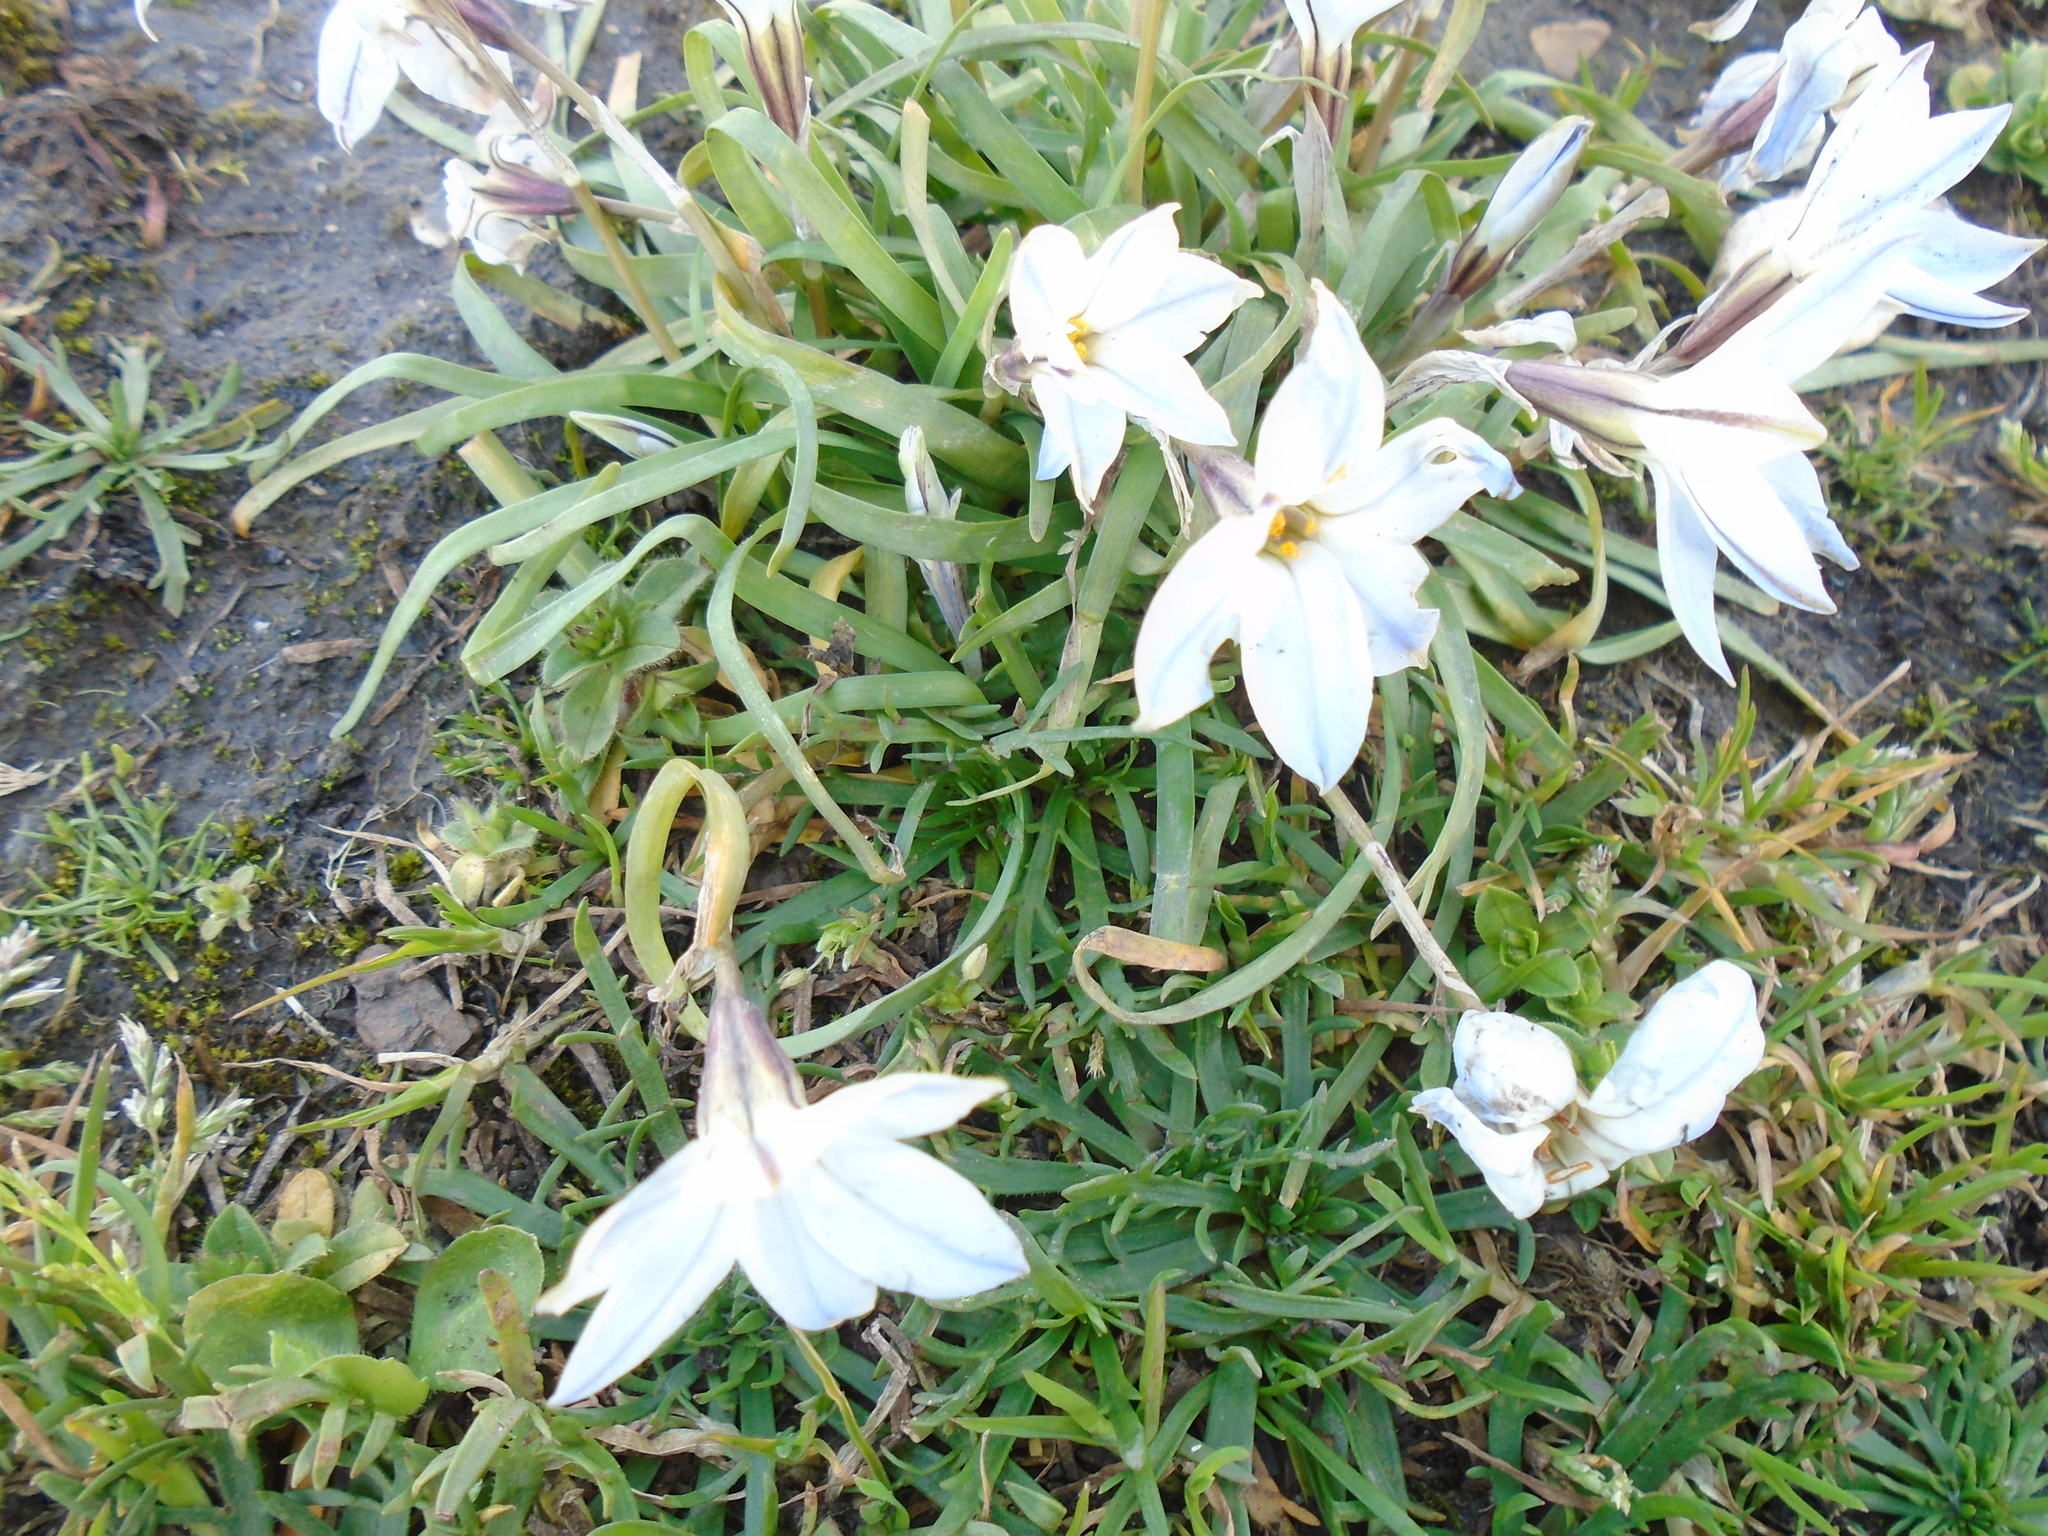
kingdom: Plantae
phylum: Tracheophyta
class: Liliopsida
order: Asparagales
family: Amaryllidaceae
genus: Ipheion
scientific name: Ipheion uniflorum
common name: Spring starflower
